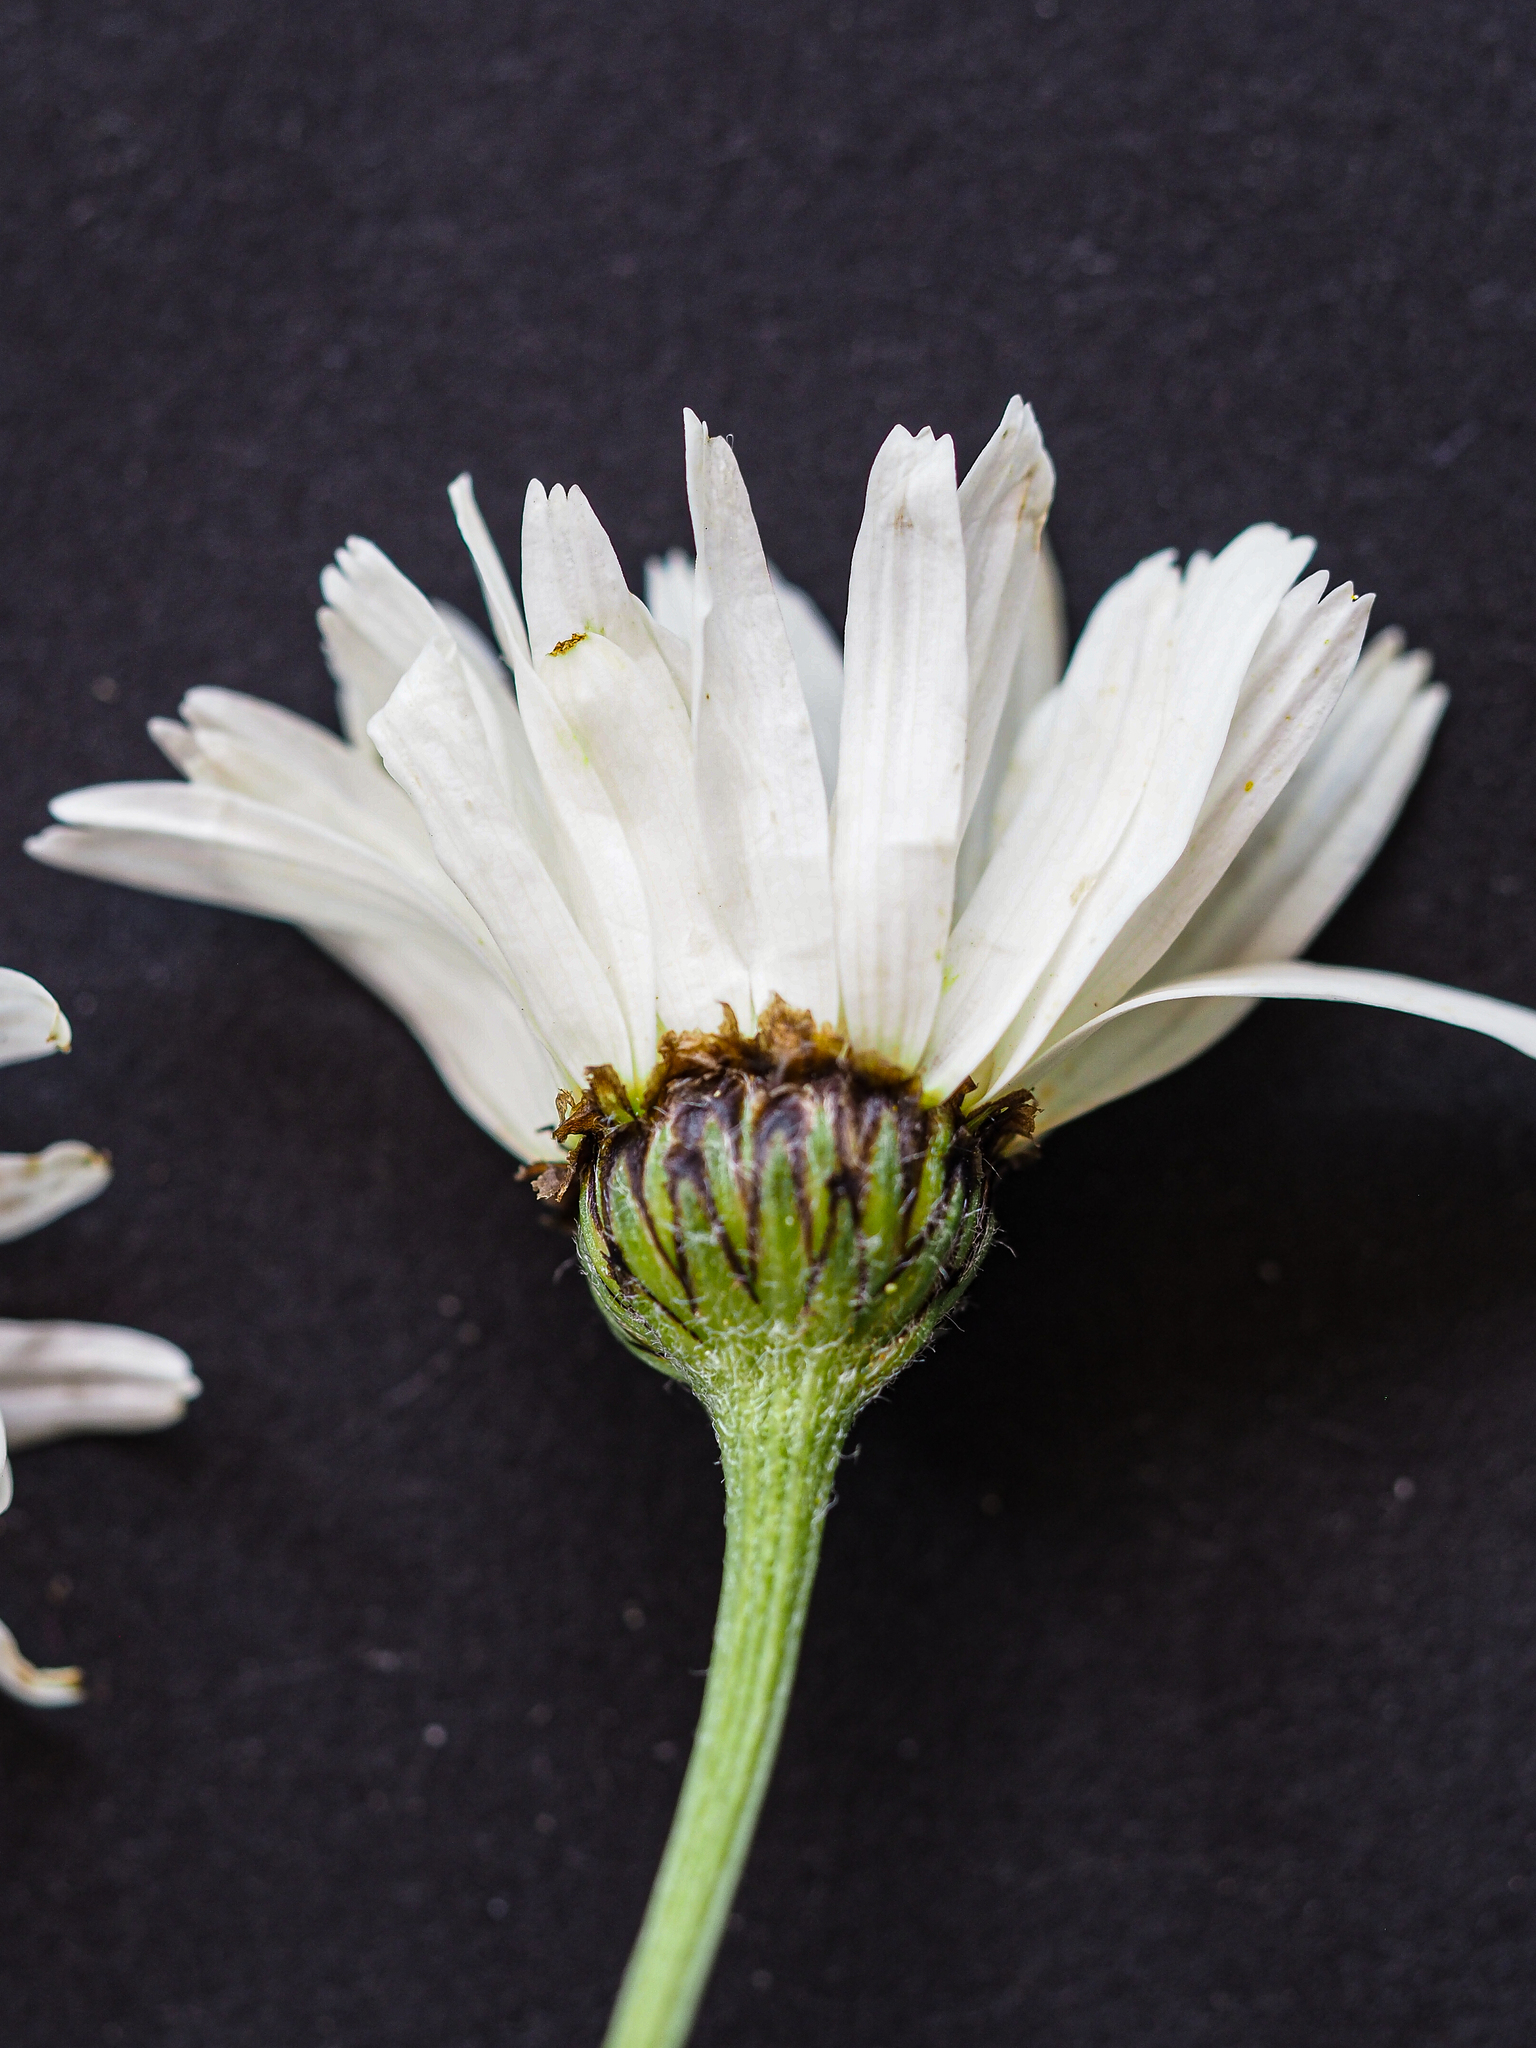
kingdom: Plantae
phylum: Tracheophyta
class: Magnoliopsida
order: Asterales
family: Asteraceae
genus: Tanacetum
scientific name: Tanacetum corymbosum
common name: Scentless feverfew
